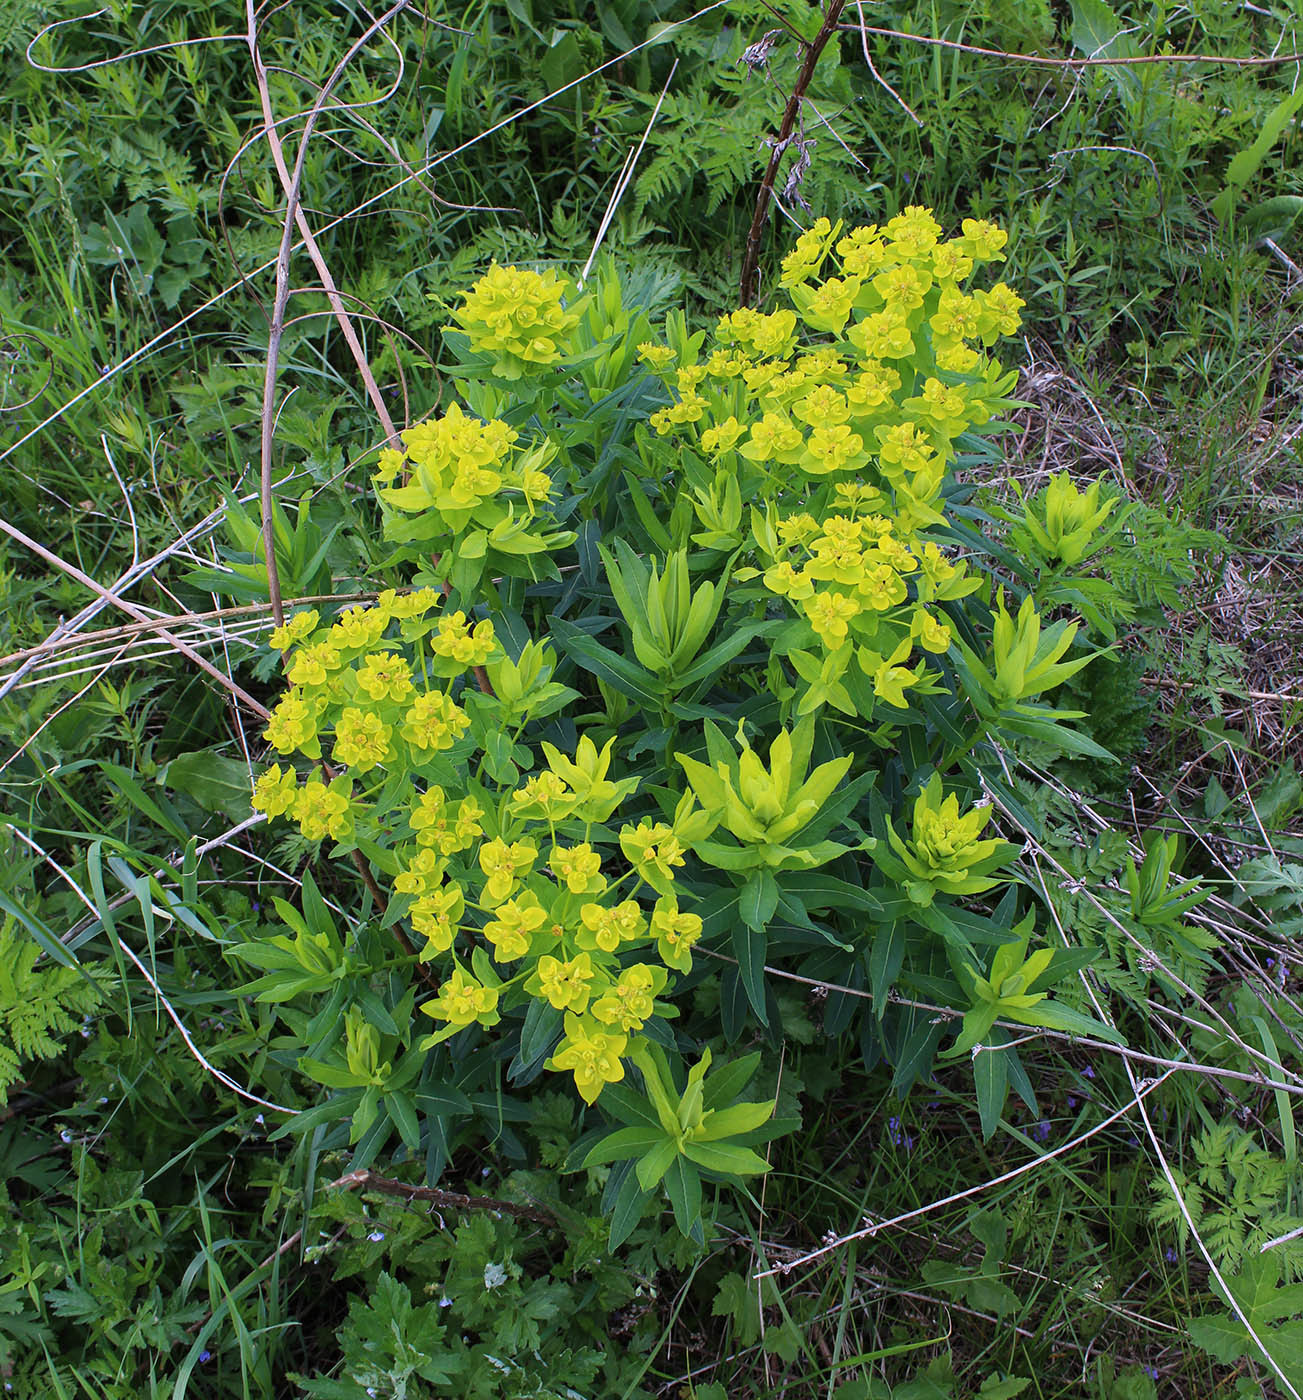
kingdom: Plantae
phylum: Tracheophyta
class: Magnoliopsida
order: Malpighiales
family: Euphorbiaceae
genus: Euphorbia
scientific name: Euphorbia semivillosa
